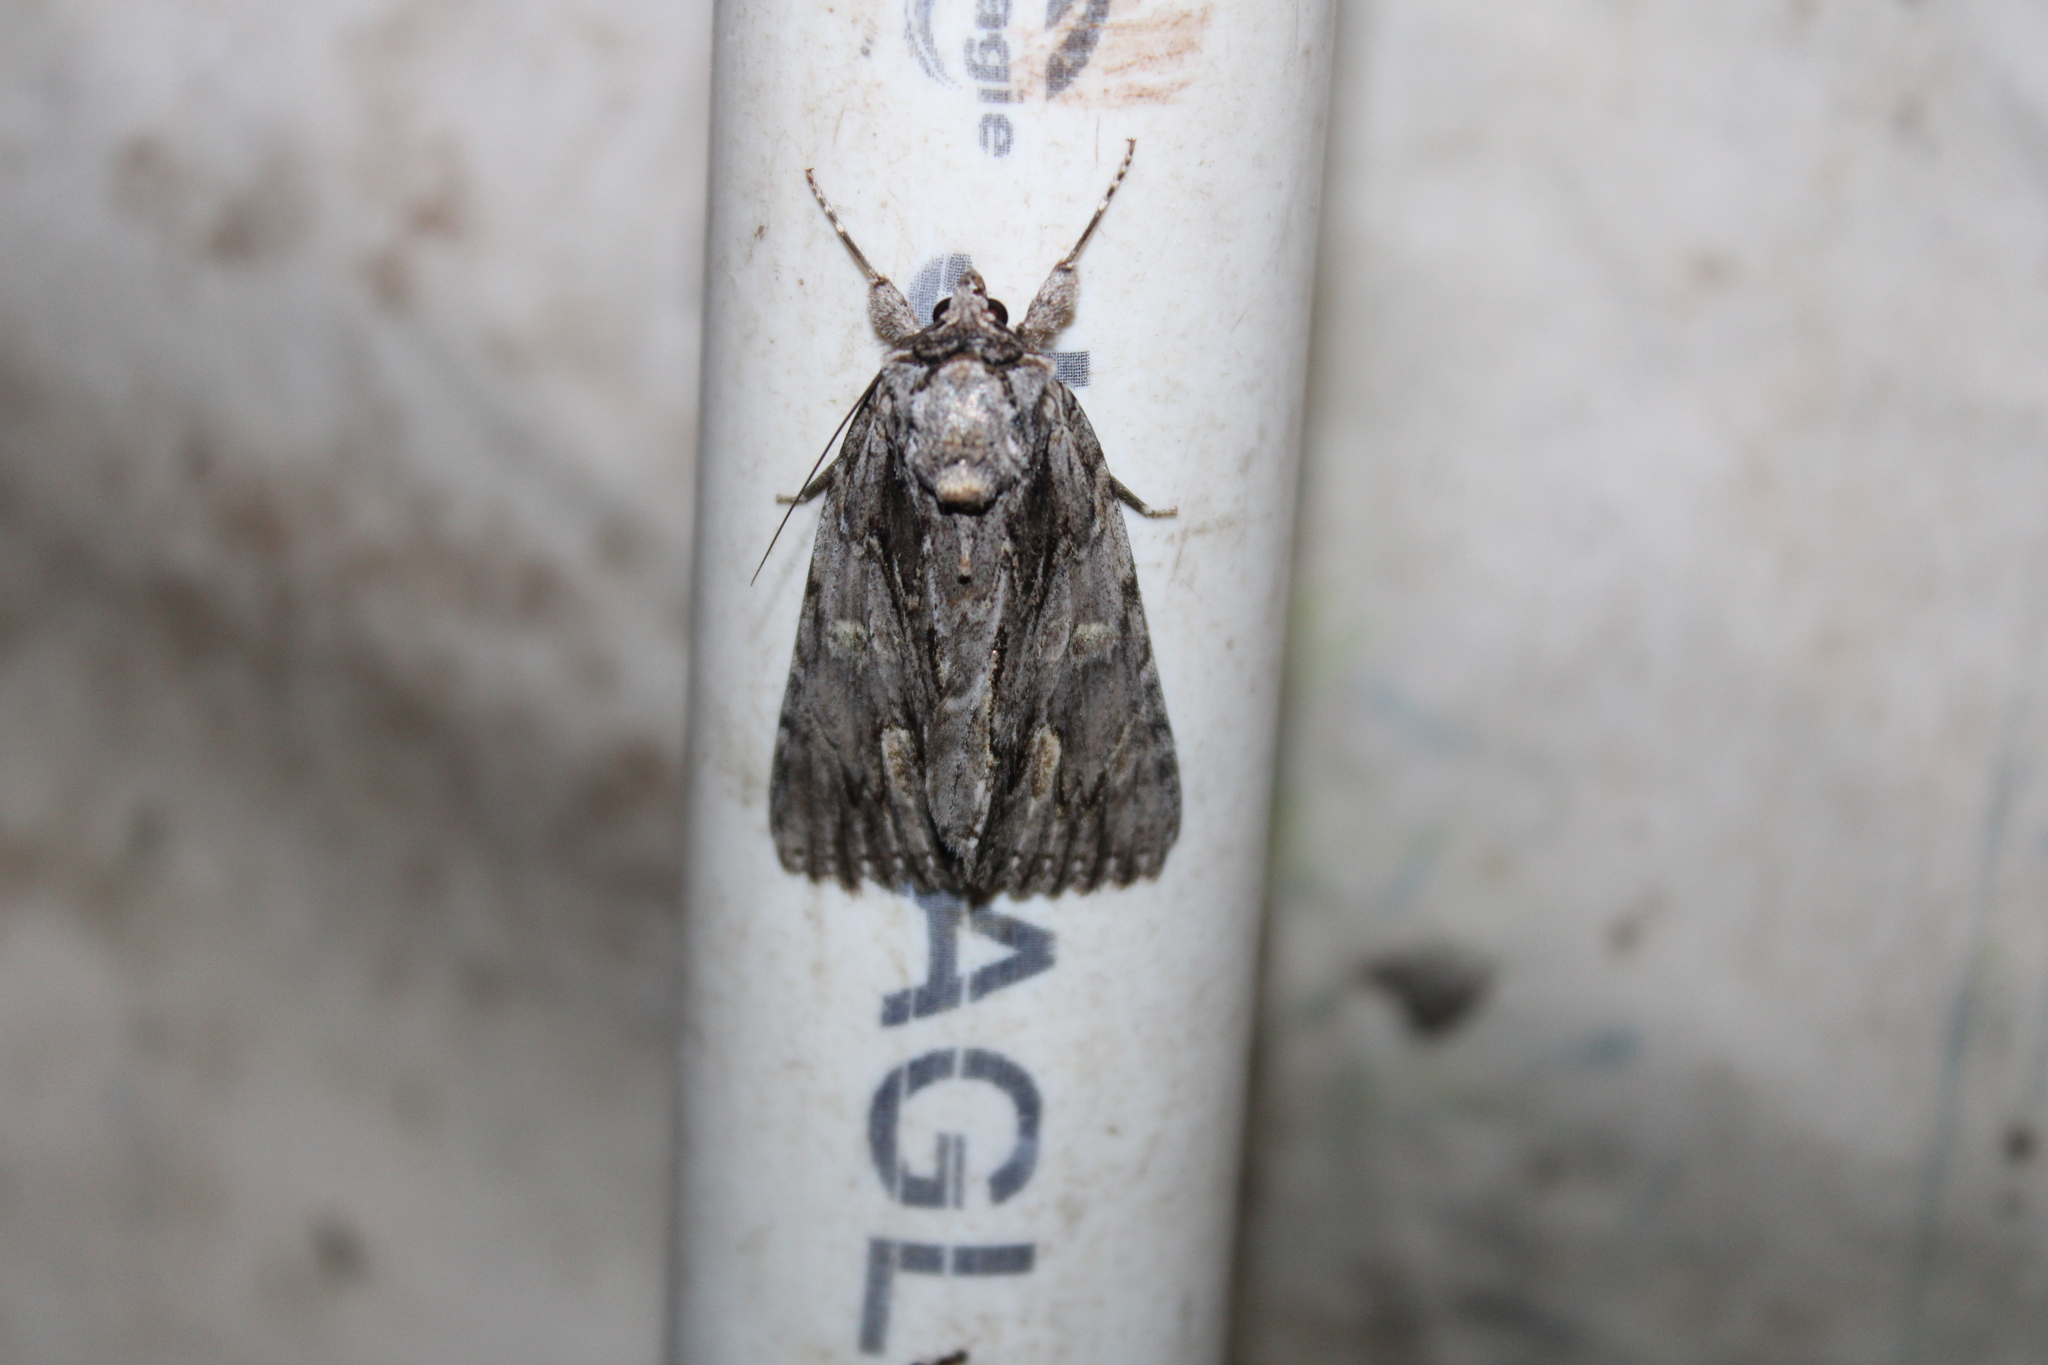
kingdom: Animalia
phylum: Arthropoda
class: Insecta
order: Lepidoptera
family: Erebidae
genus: Catocala
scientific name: Catocala coccinata
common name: Scarlet underwing
